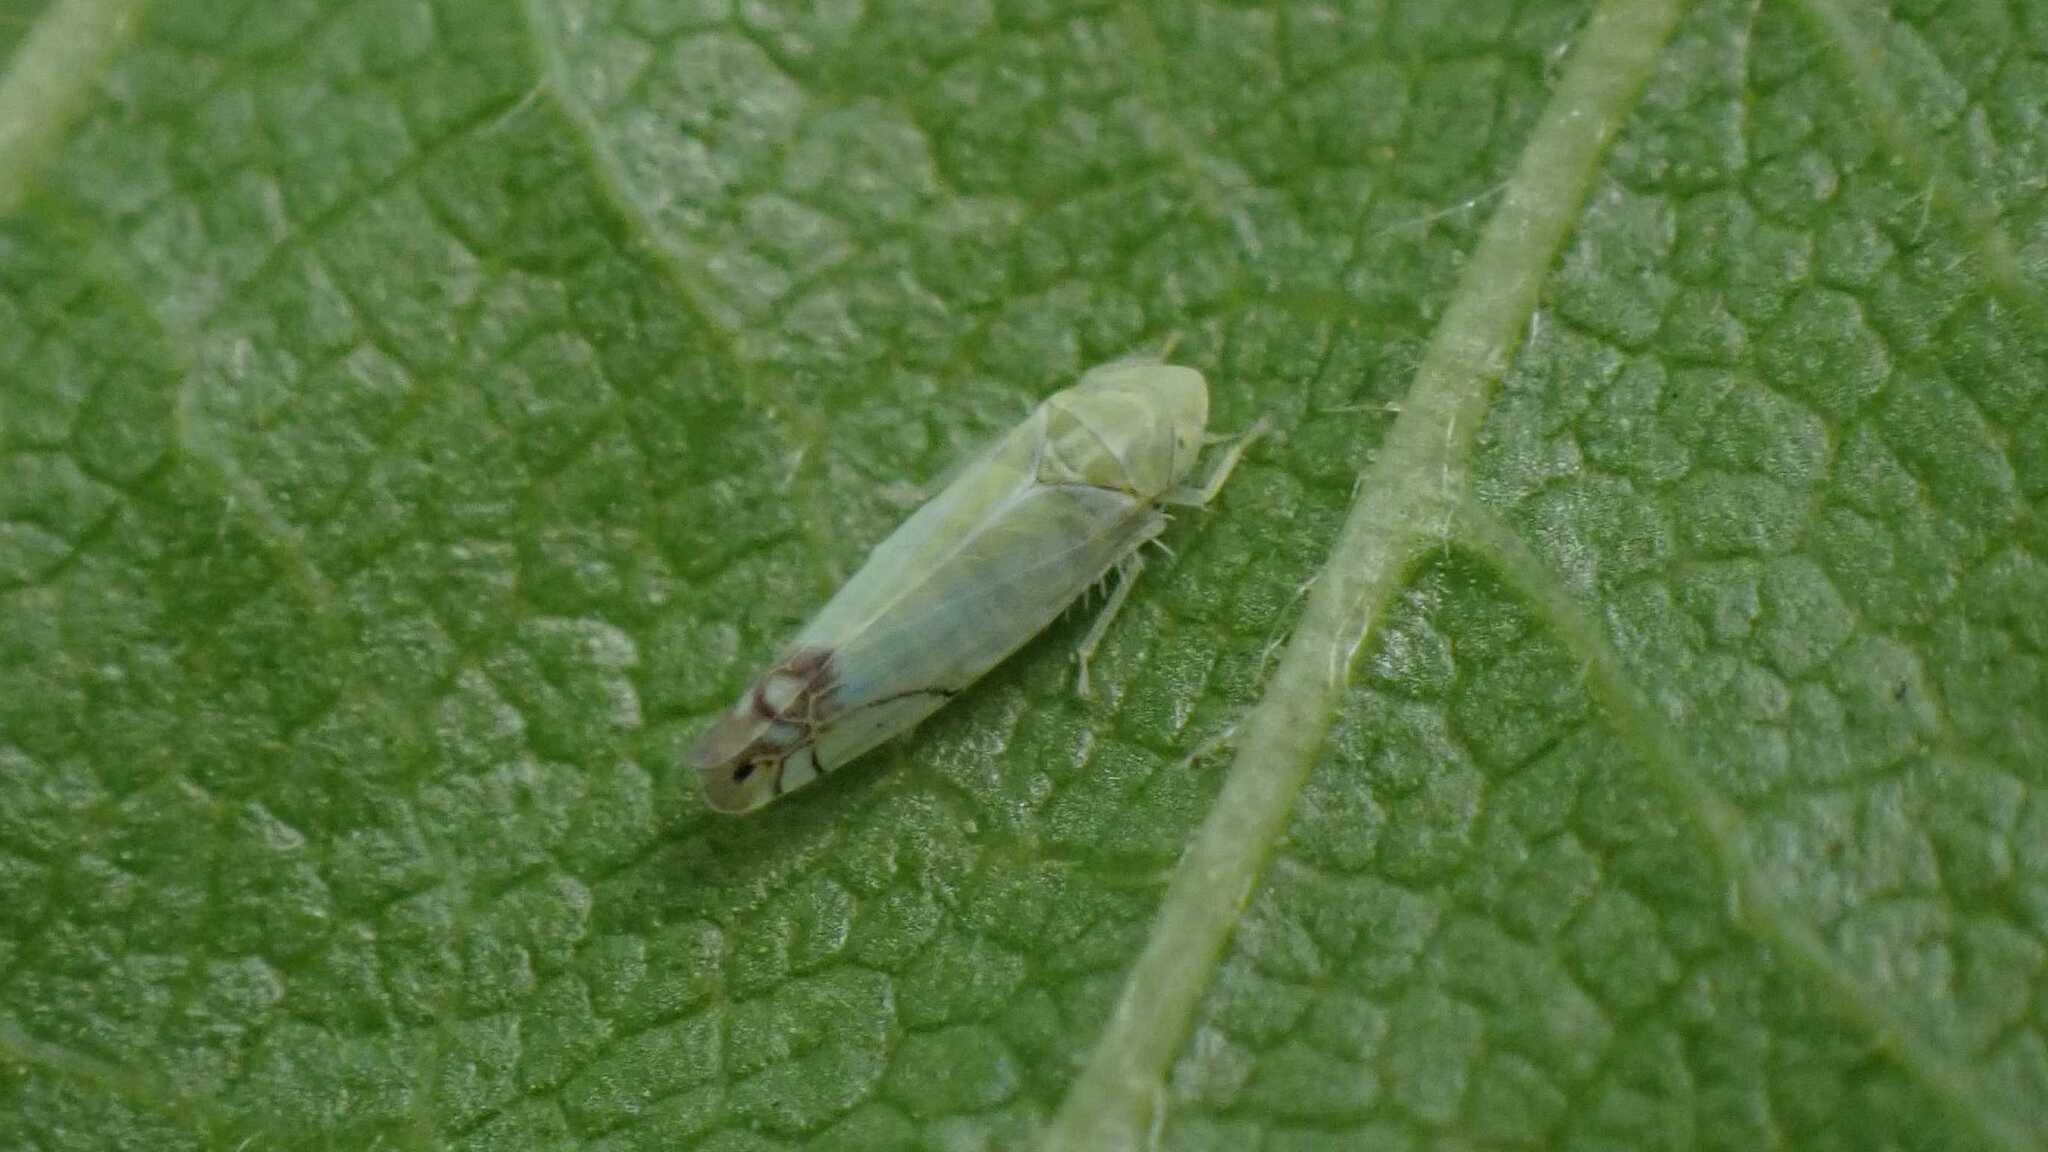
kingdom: Animalia
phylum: Arthropoda
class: Insecta
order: Hemiptera
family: Cicadellidae
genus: Zyginella
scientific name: Zyginella pulchra
